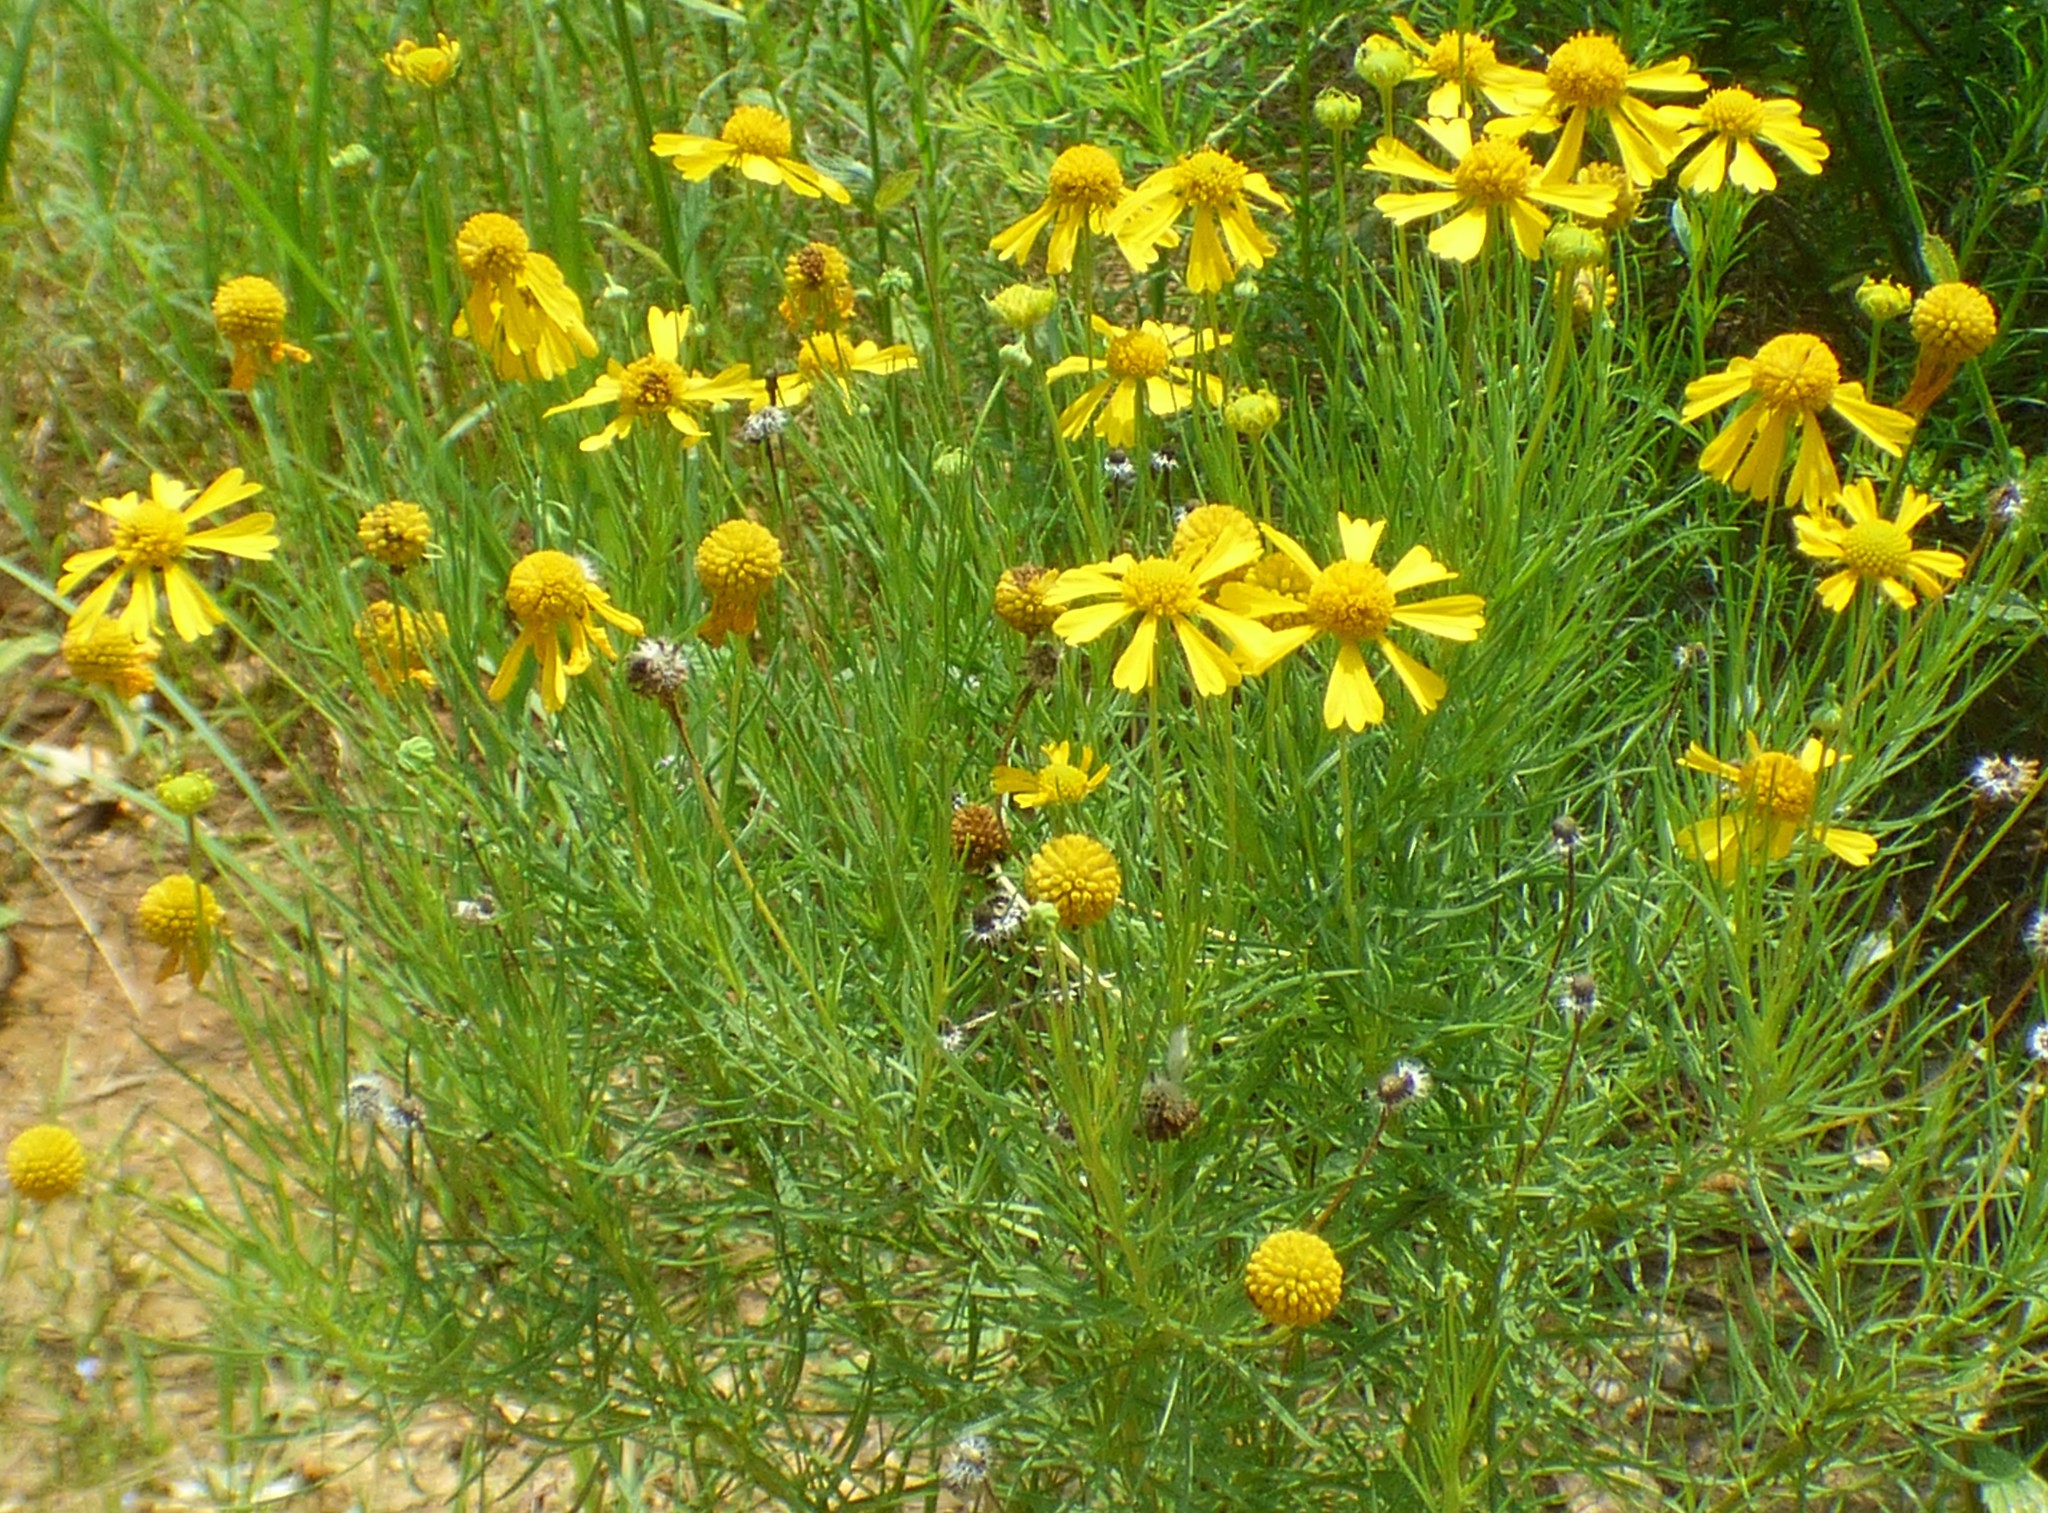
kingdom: Plantae
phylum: Tracheophyta
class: Magnoliopsida
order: Asterales
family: Asteraceae
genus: Helenium
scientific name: Helenium amarum
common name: Bitter sneezeweed
